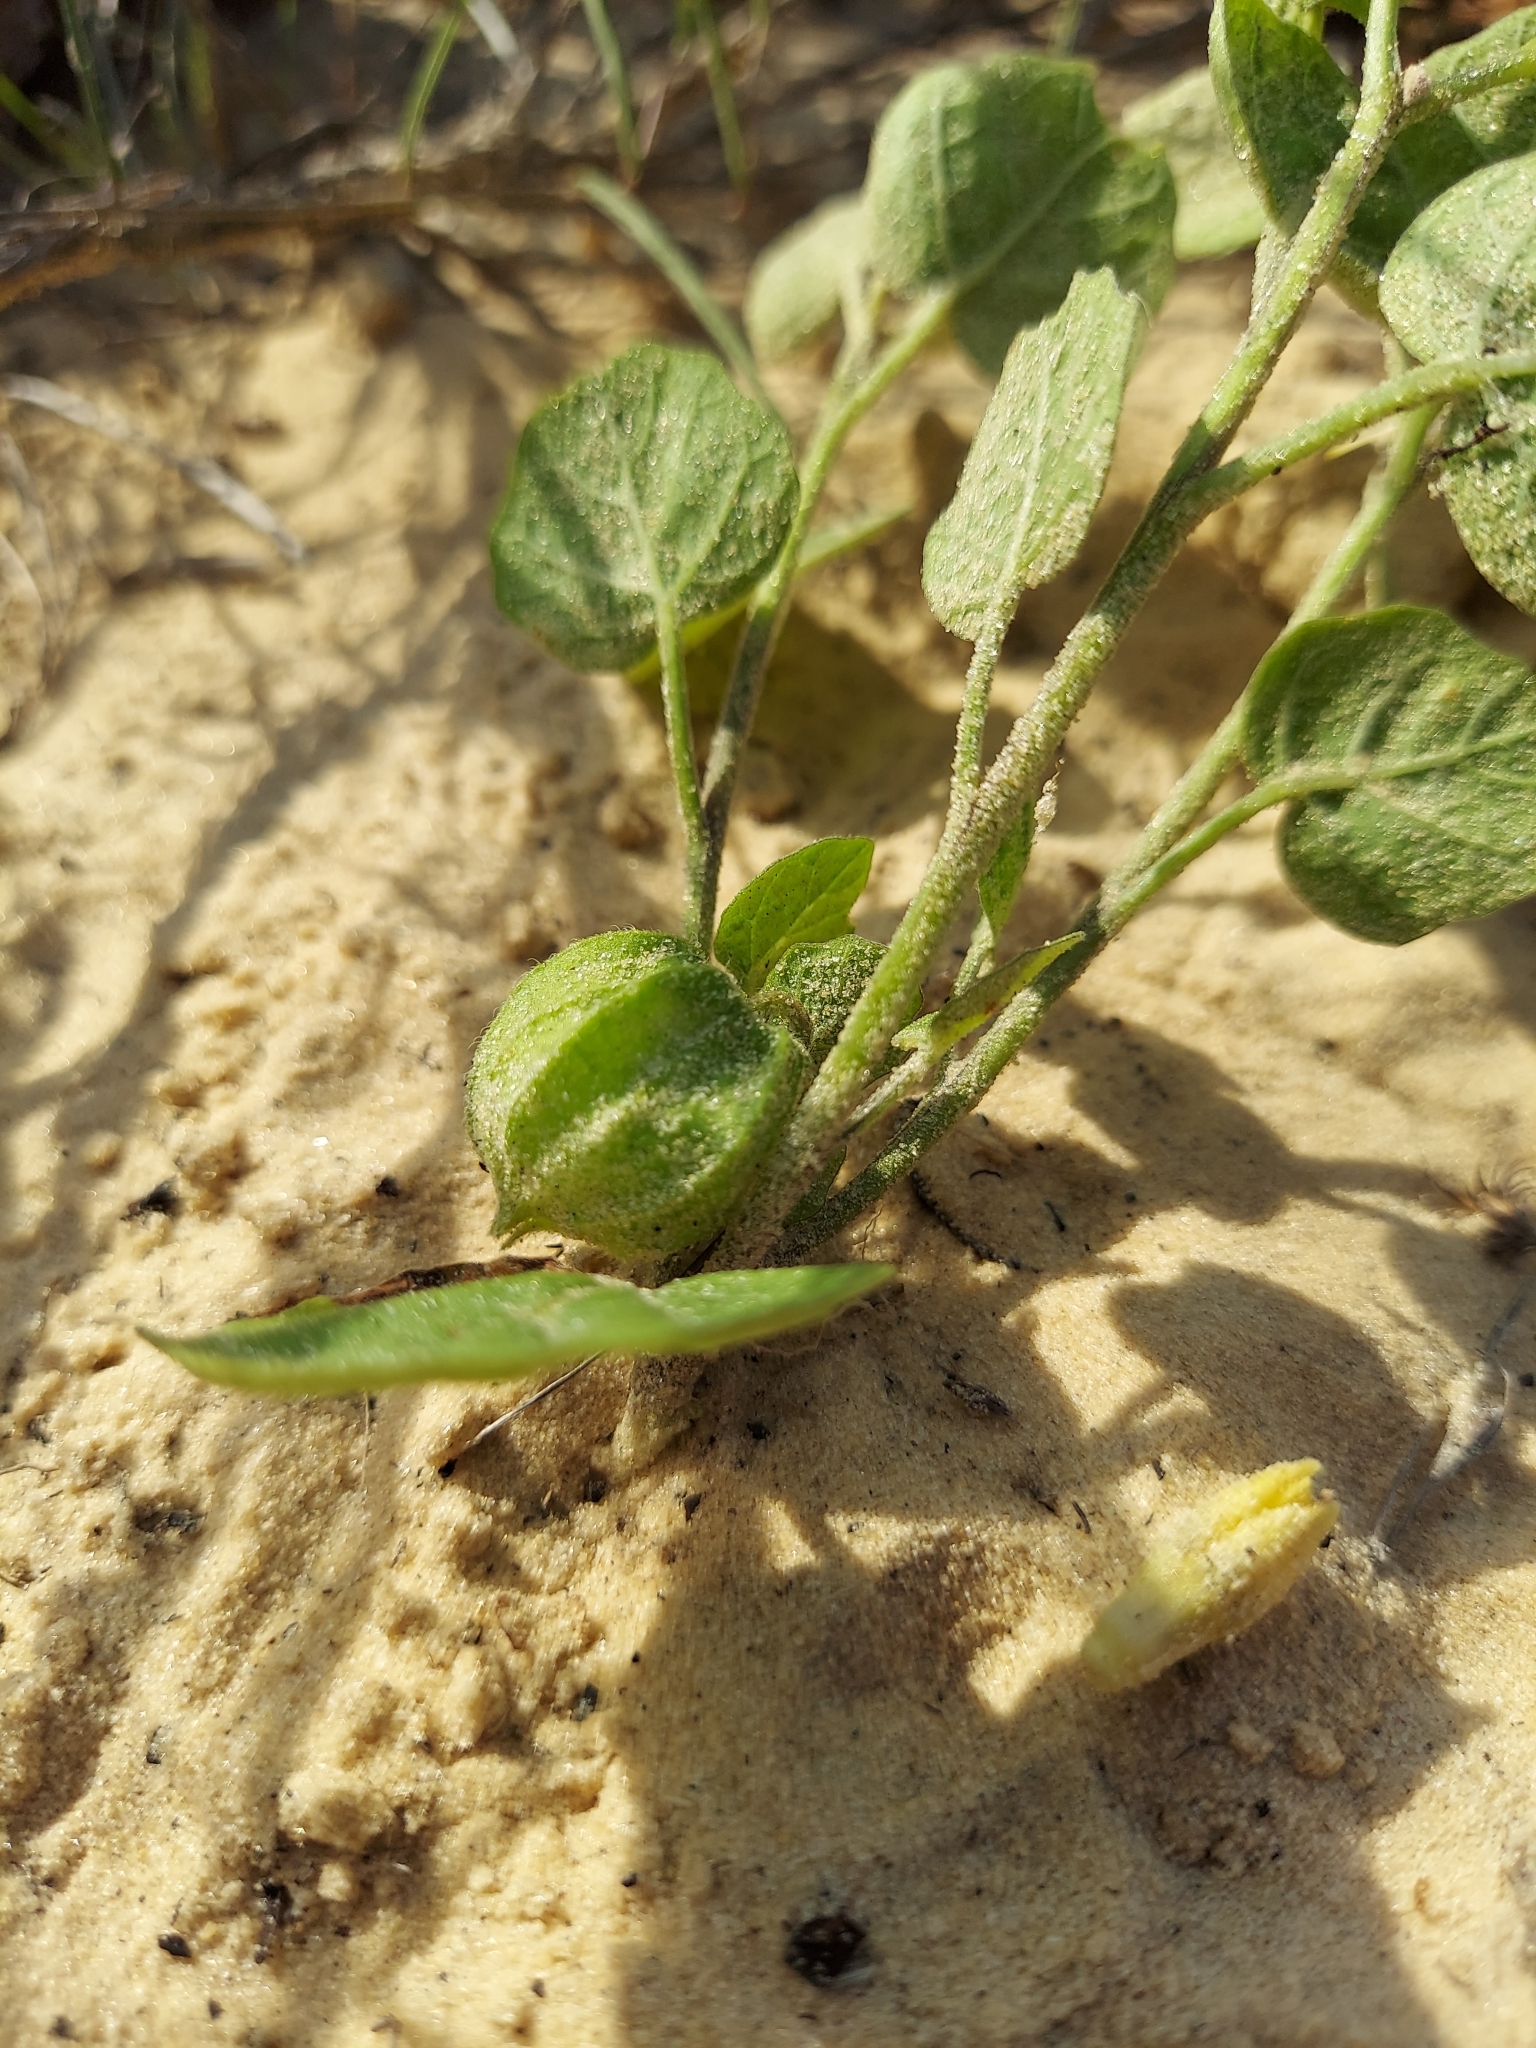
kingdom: Plantae
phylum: Tracheophyta
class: Magnoliopsida
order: Solanales
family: Solanaceae
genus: Physalis
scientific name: Physalis arenicola
